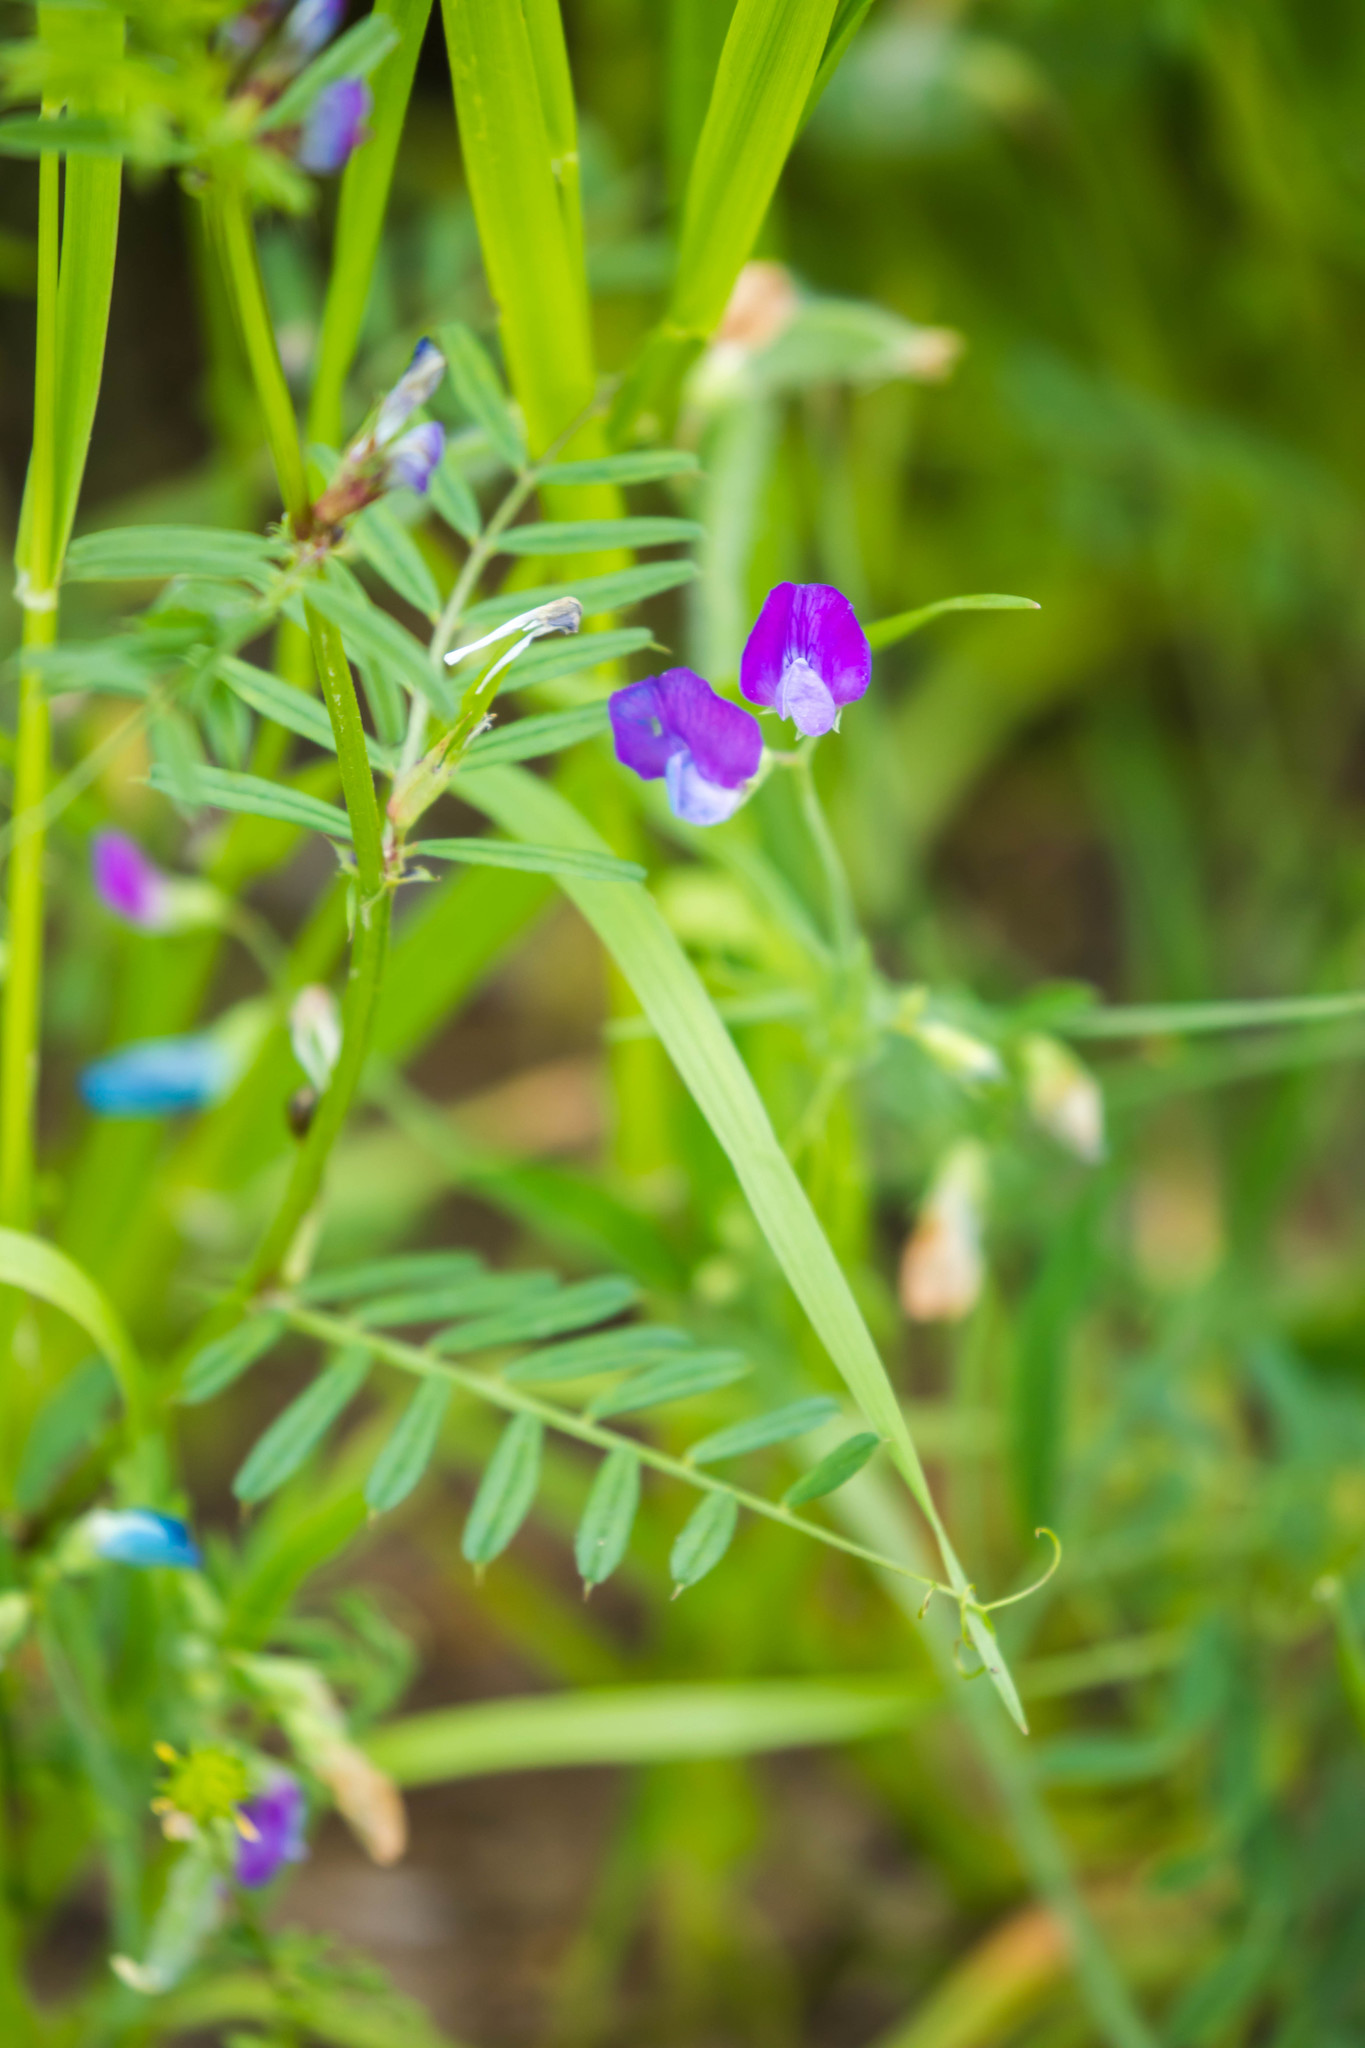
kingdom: Plantae
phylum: Tracheophyta
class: Magnoliopsida
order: Fabales
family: Fabaceae
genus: Vicia
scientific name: Vicia sativa
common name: Garden vetch
